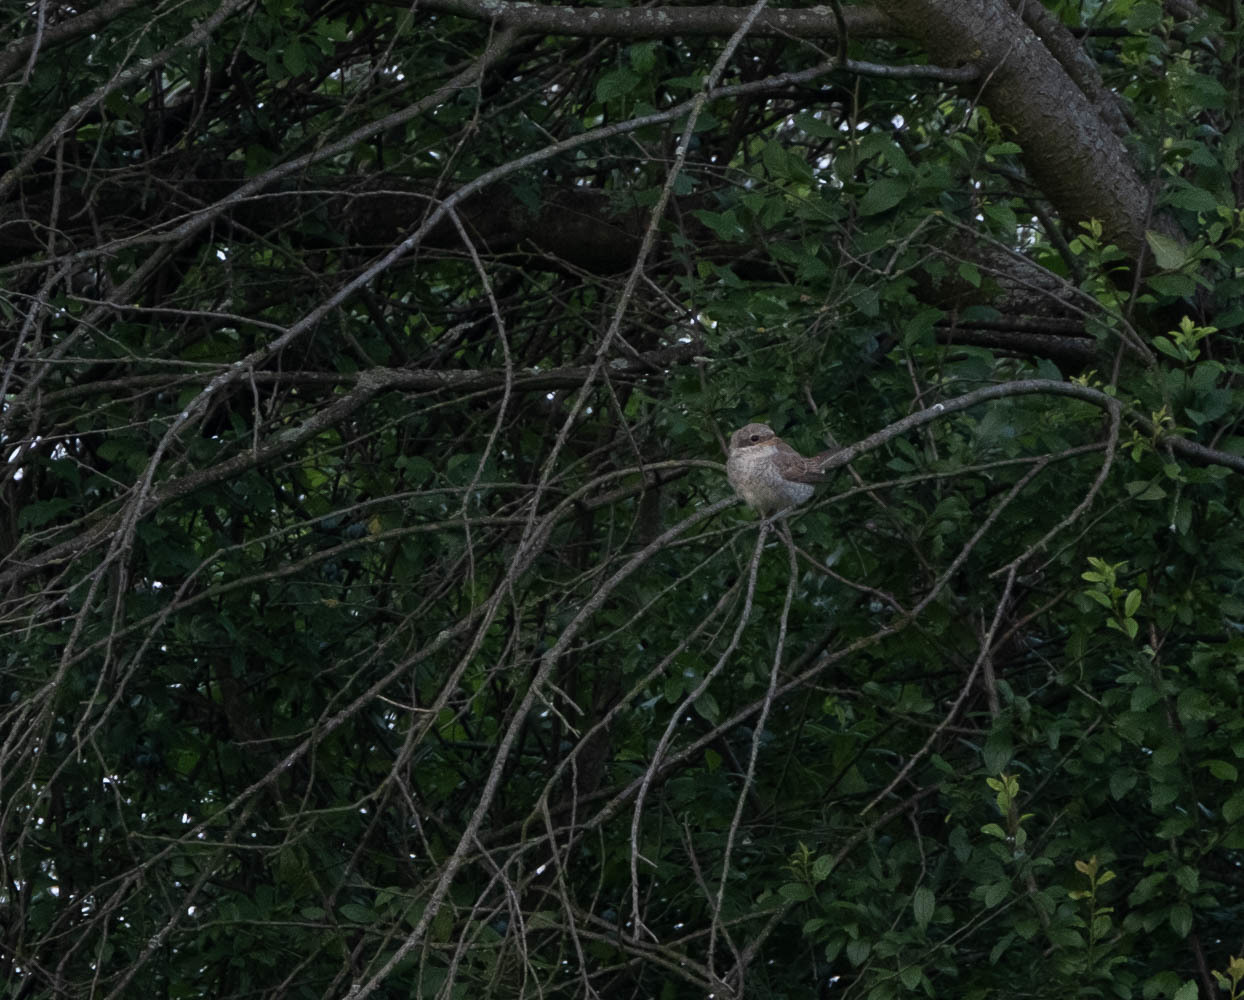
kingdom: Animalia
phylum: Chordata
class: Aves
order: Passeriformes
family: Laniidae
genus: Lanius
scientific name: Lanius collurio
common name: Red-backed shrike
